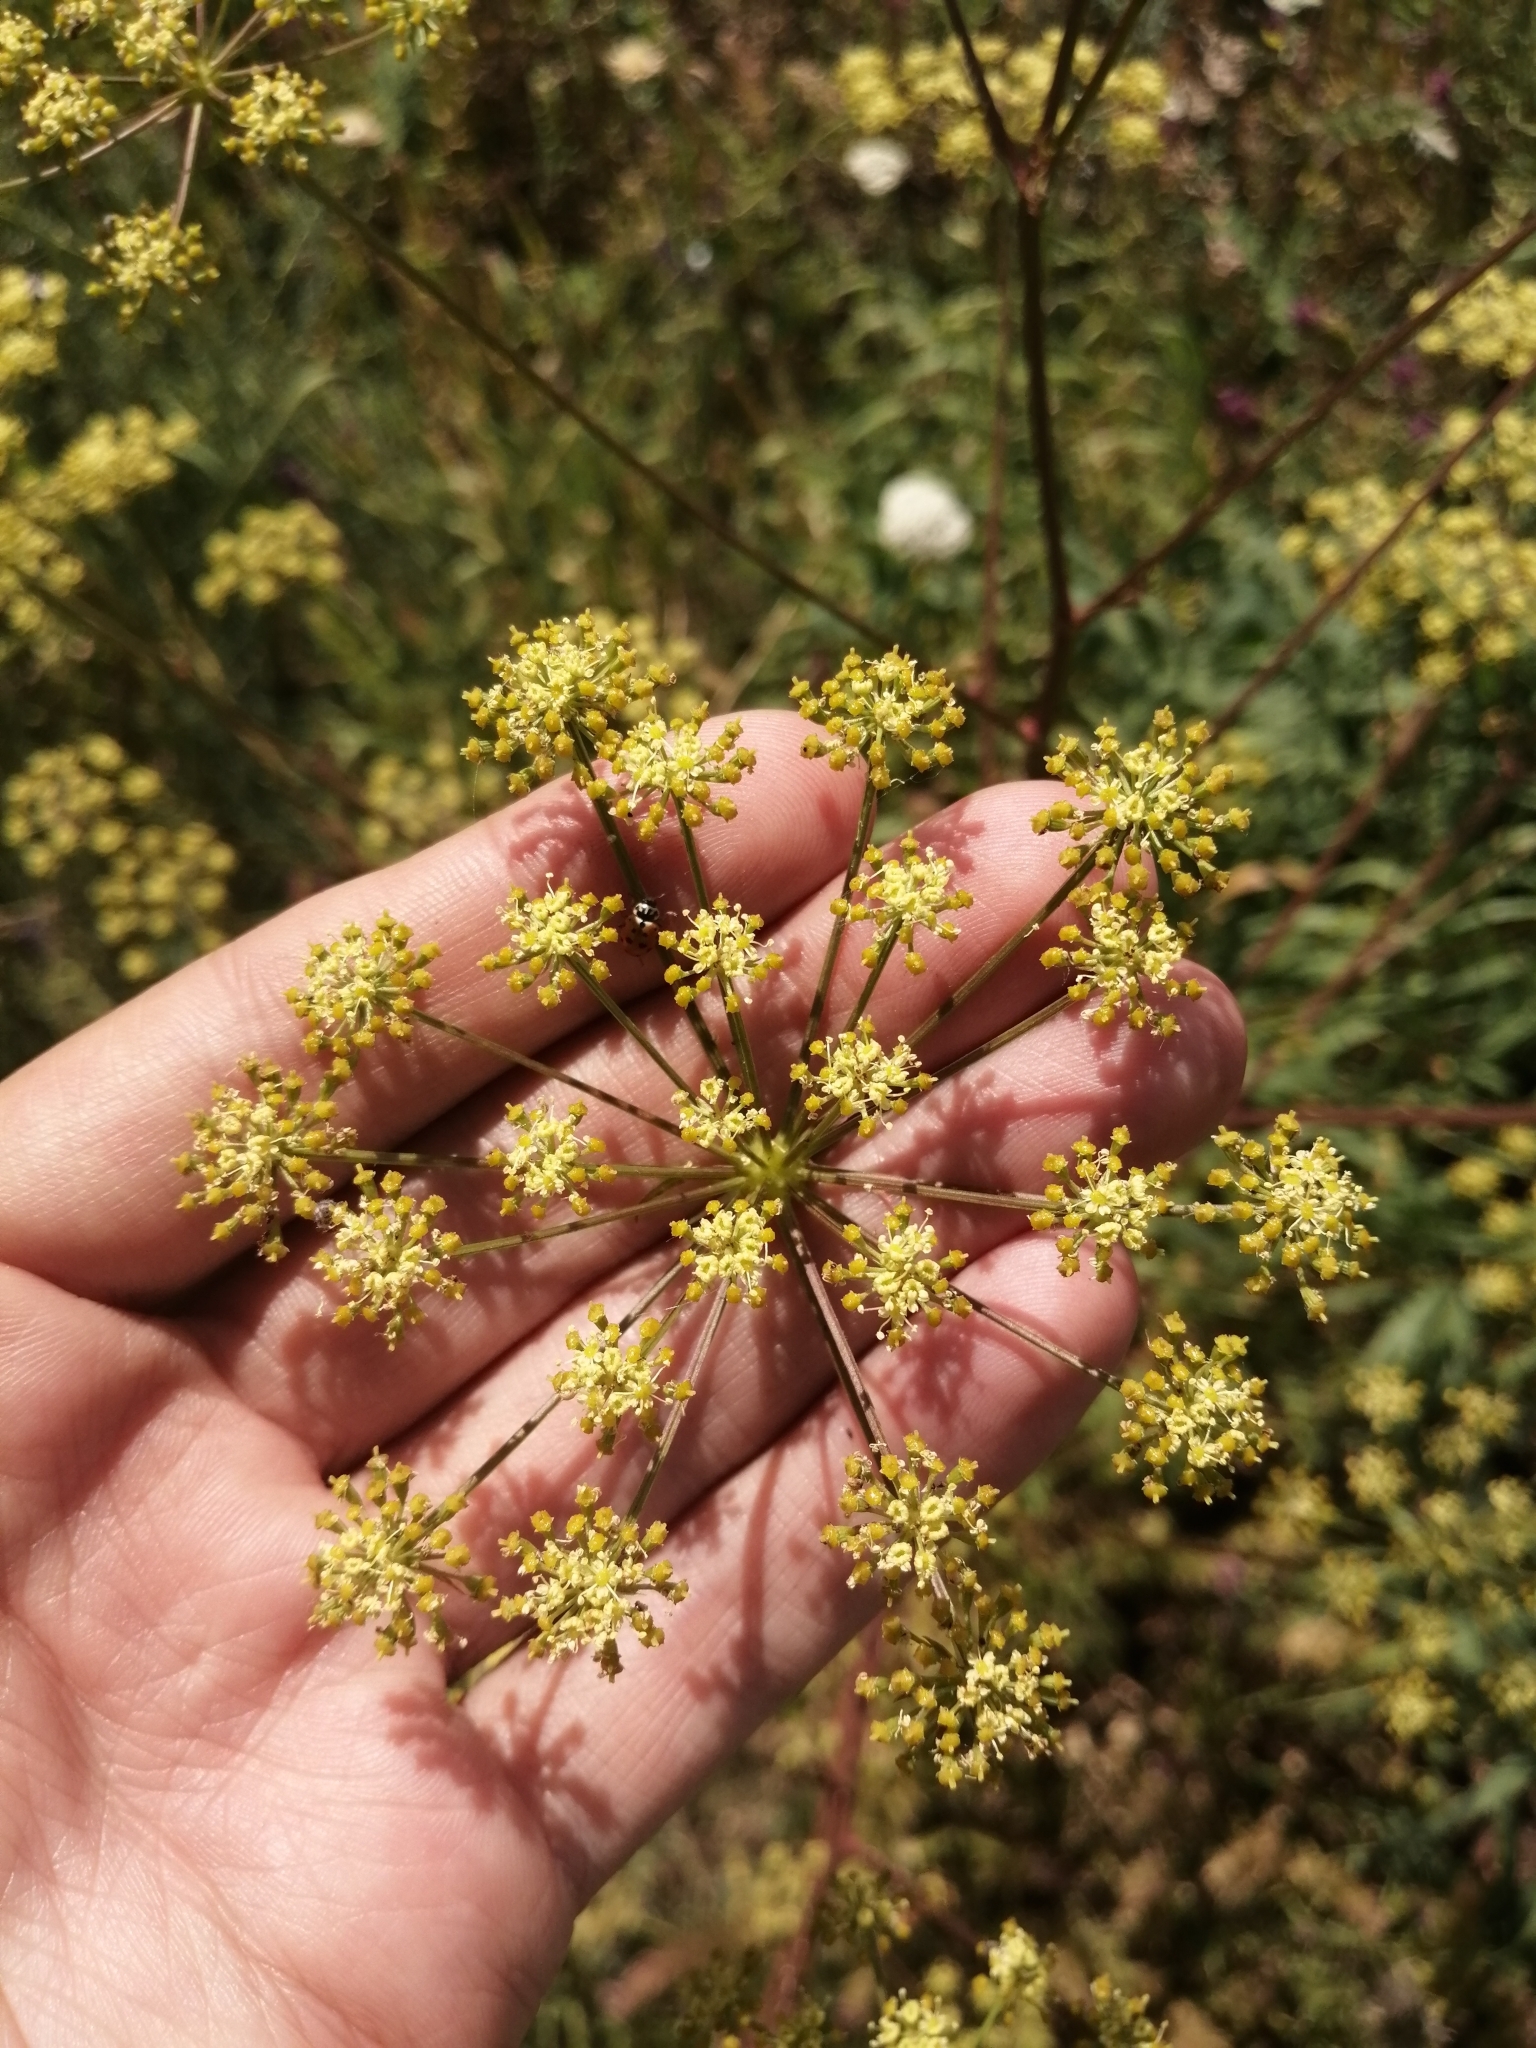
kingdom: Plantae
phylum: Tracheophyta
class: Magnoliopsida
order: Apiales
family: Apiaceae
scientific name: Apiaceae
